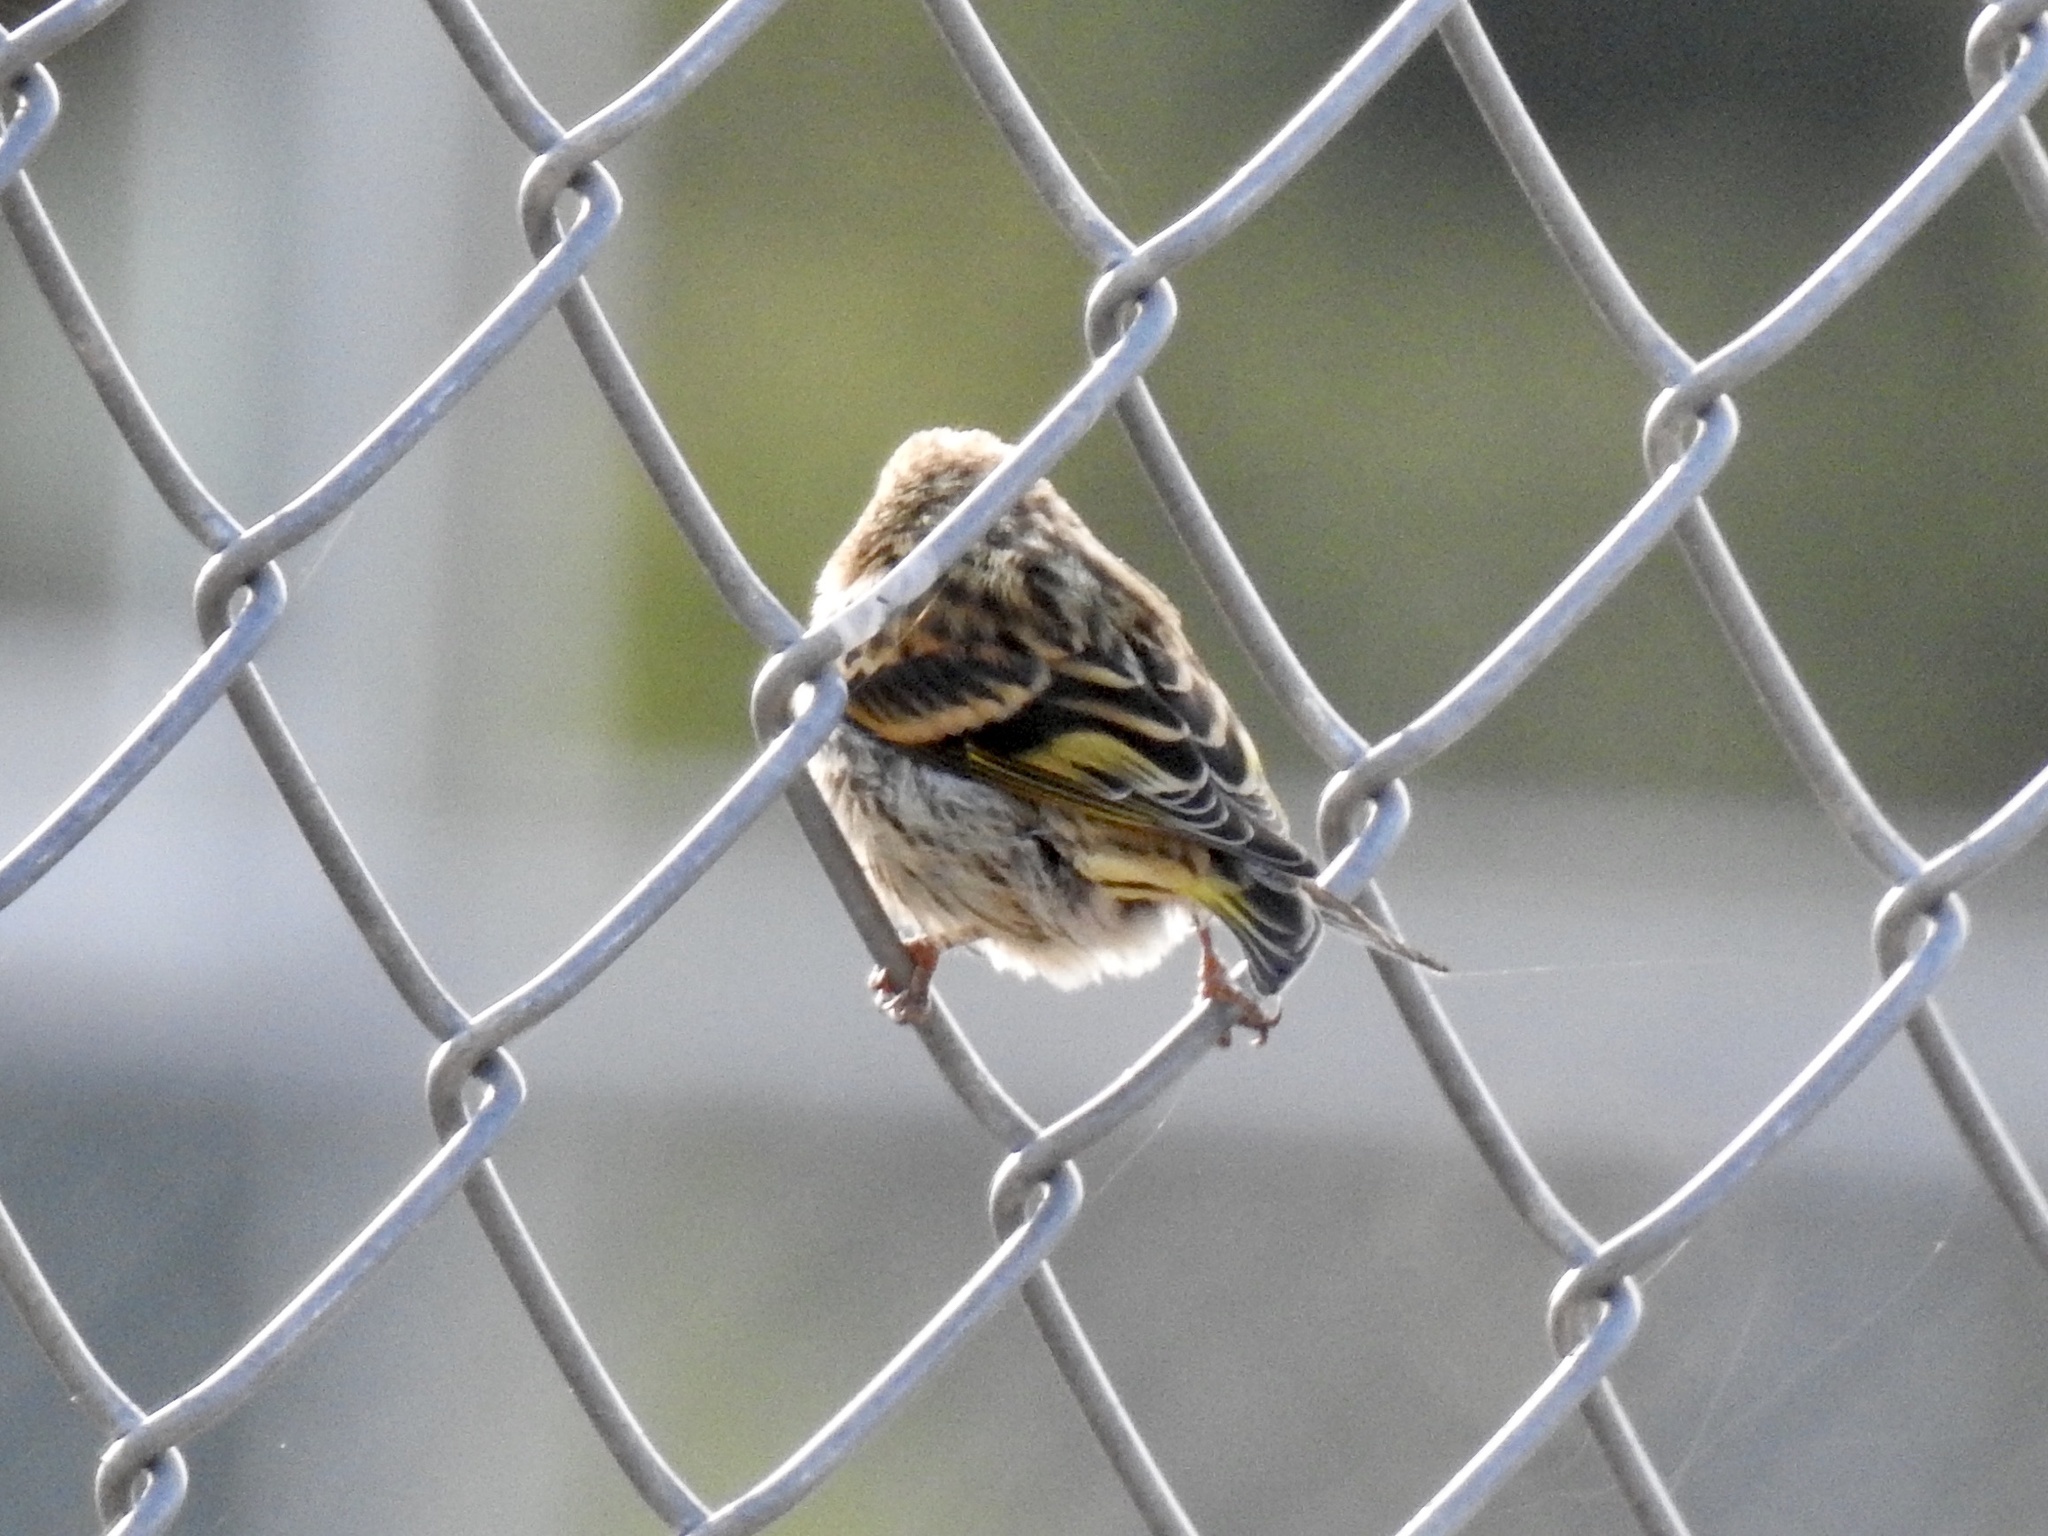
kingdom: Animalia
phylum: Chordata
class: Aves
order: Passeriformes
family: Fringillidae
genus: Spinus
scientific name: Spinus pinus
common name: Pine siskin
